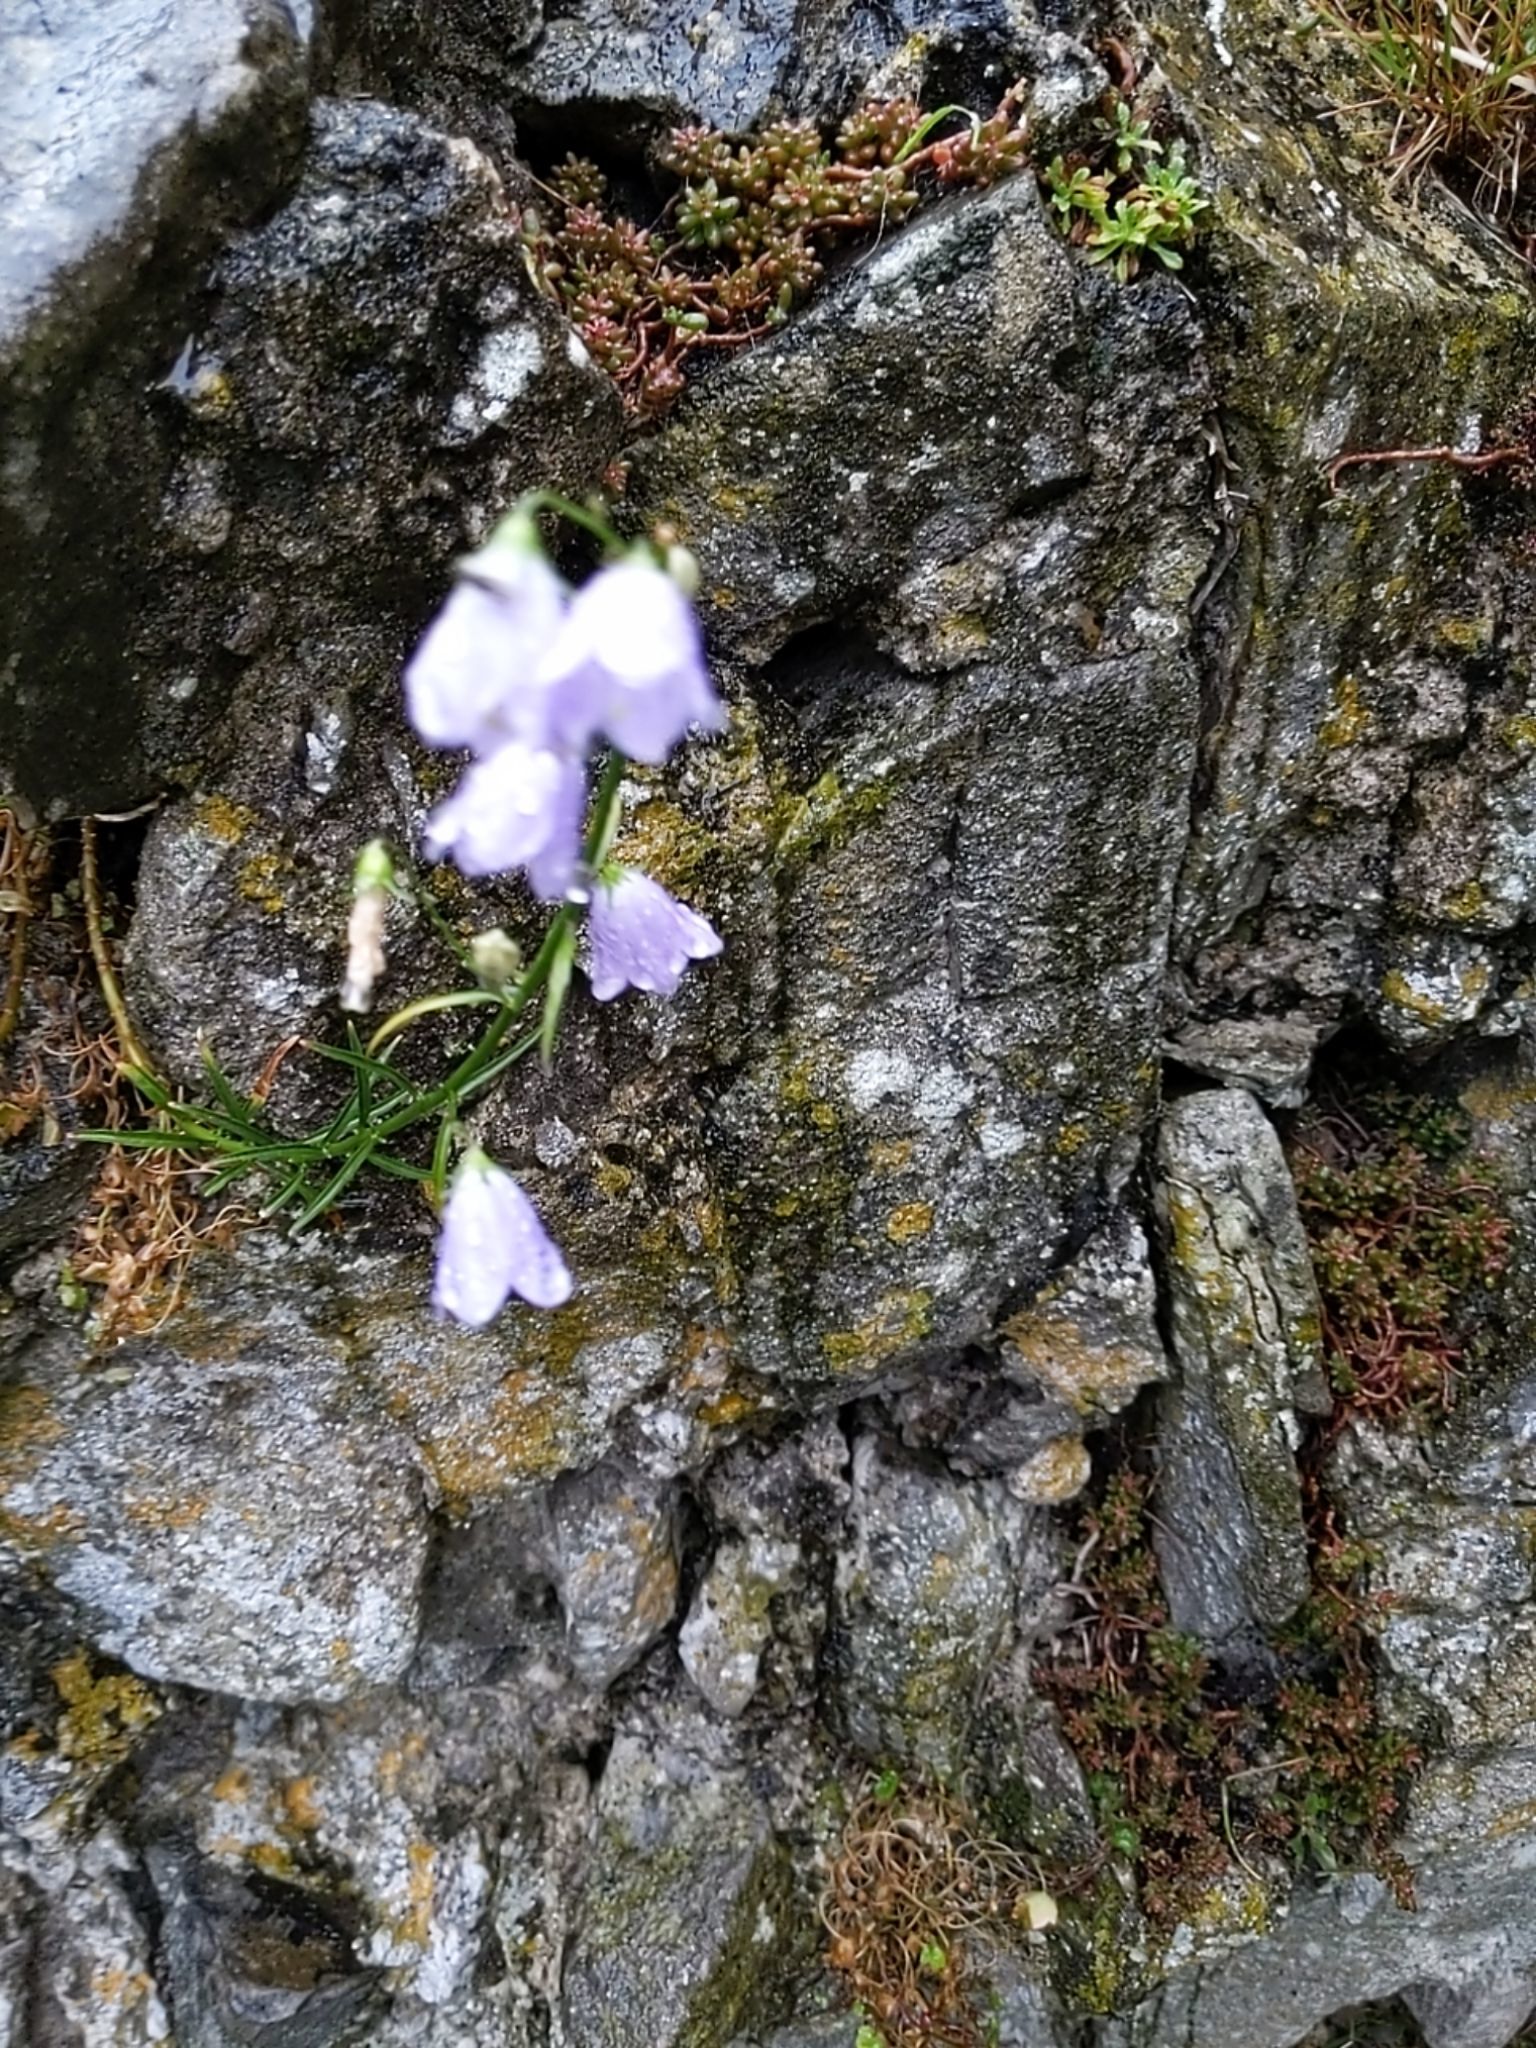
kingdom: Plantae
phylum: Tracheophyta
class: Magnoliopsida
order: Asterales
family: Campanulaceae
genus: Campanula
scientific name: Campanula rotundifolia
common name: Harebell
